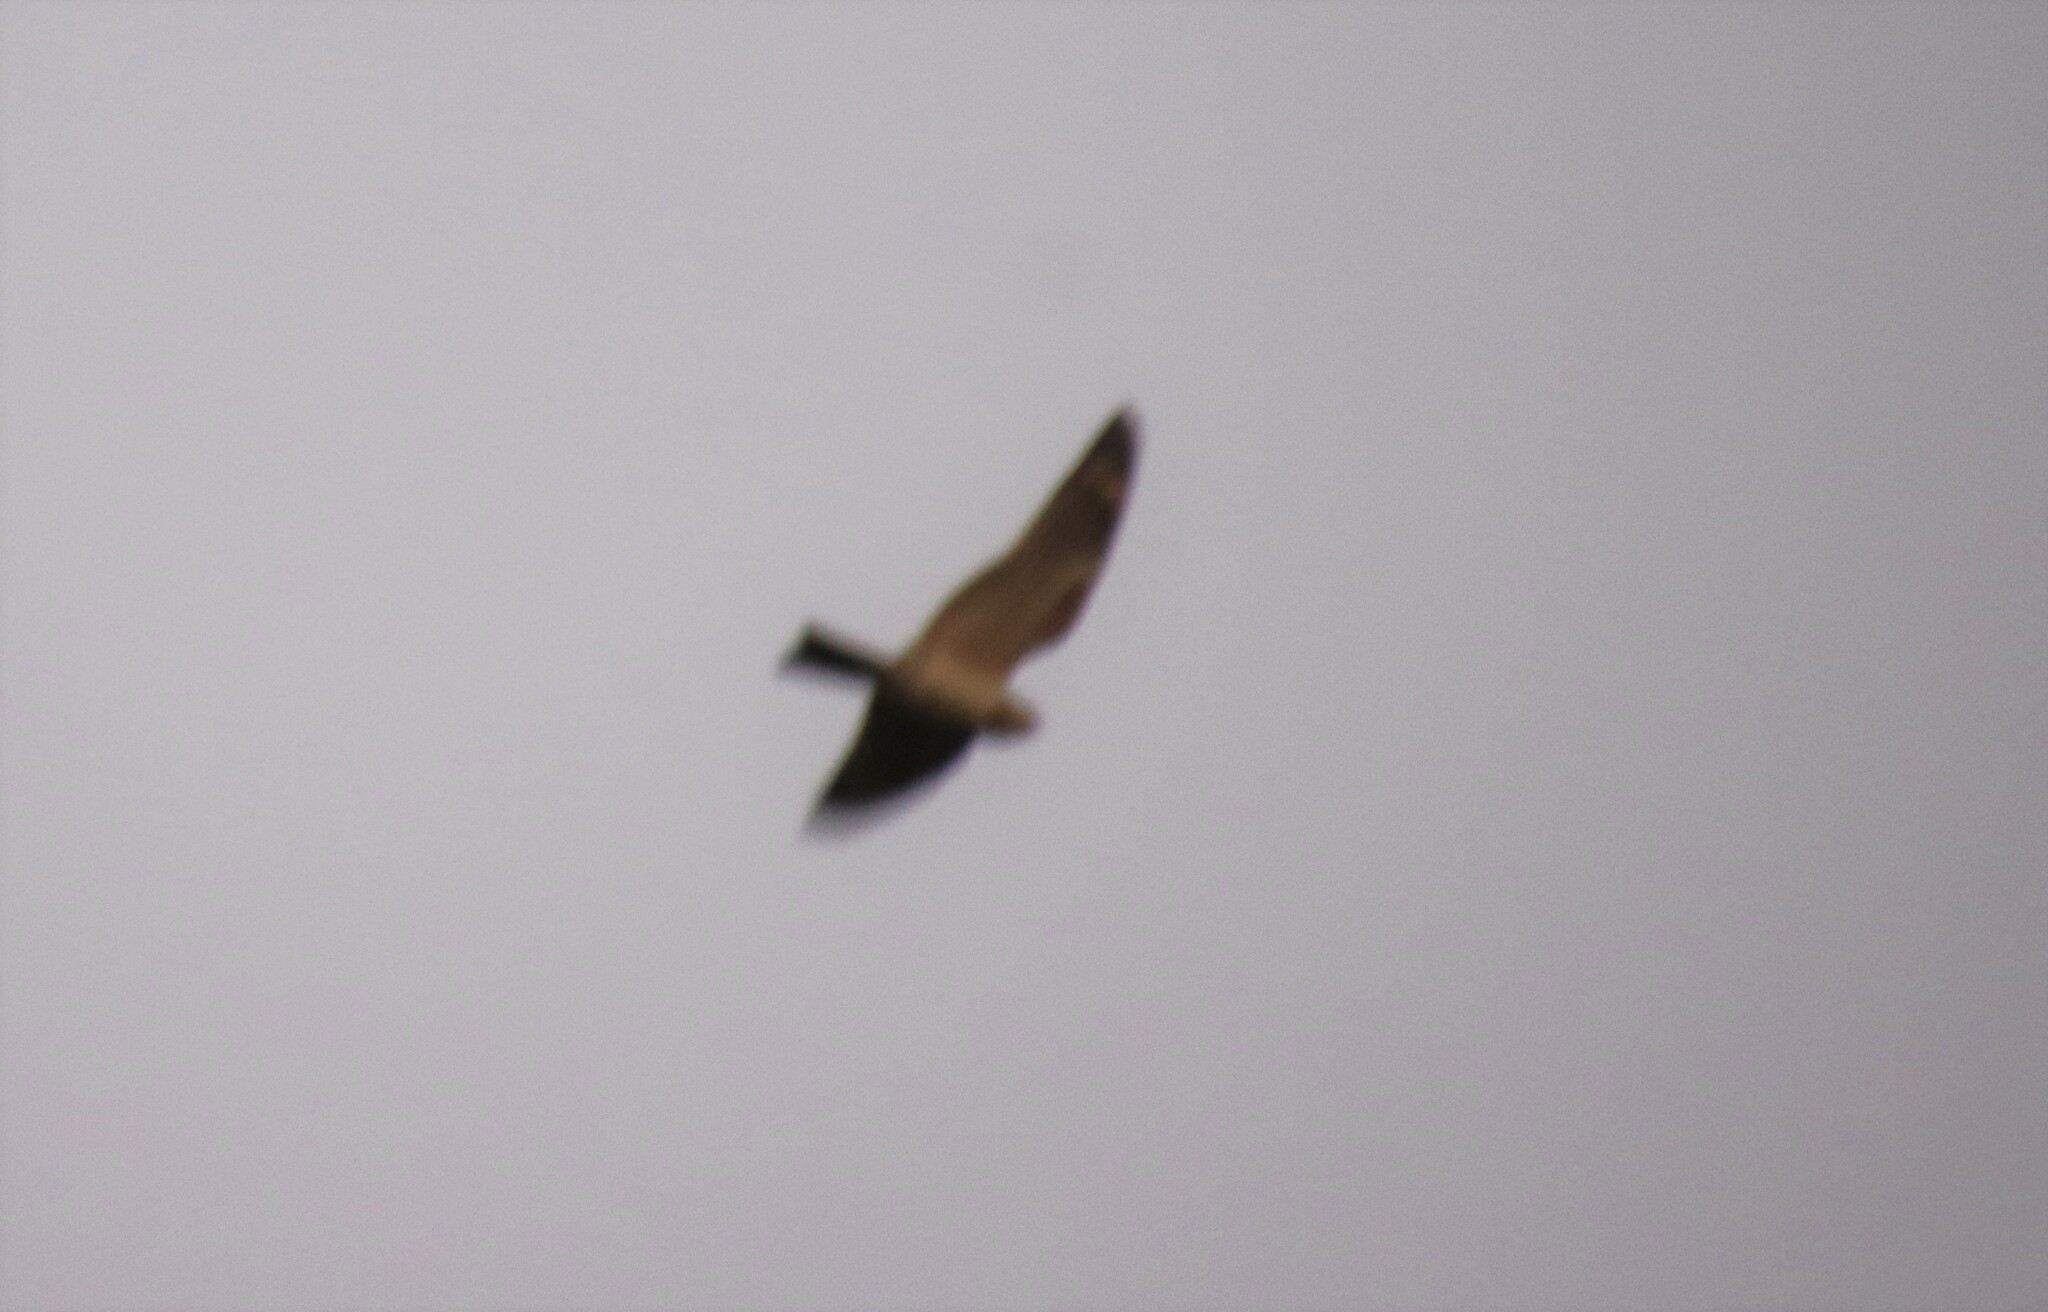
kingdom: Animalia
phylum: Chordata
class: Aves
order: Caprimulgiformes
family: Caprimulgidae
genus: Chordeiles
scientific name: Chordeiles acutipennis
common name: Lesser nighthawk
